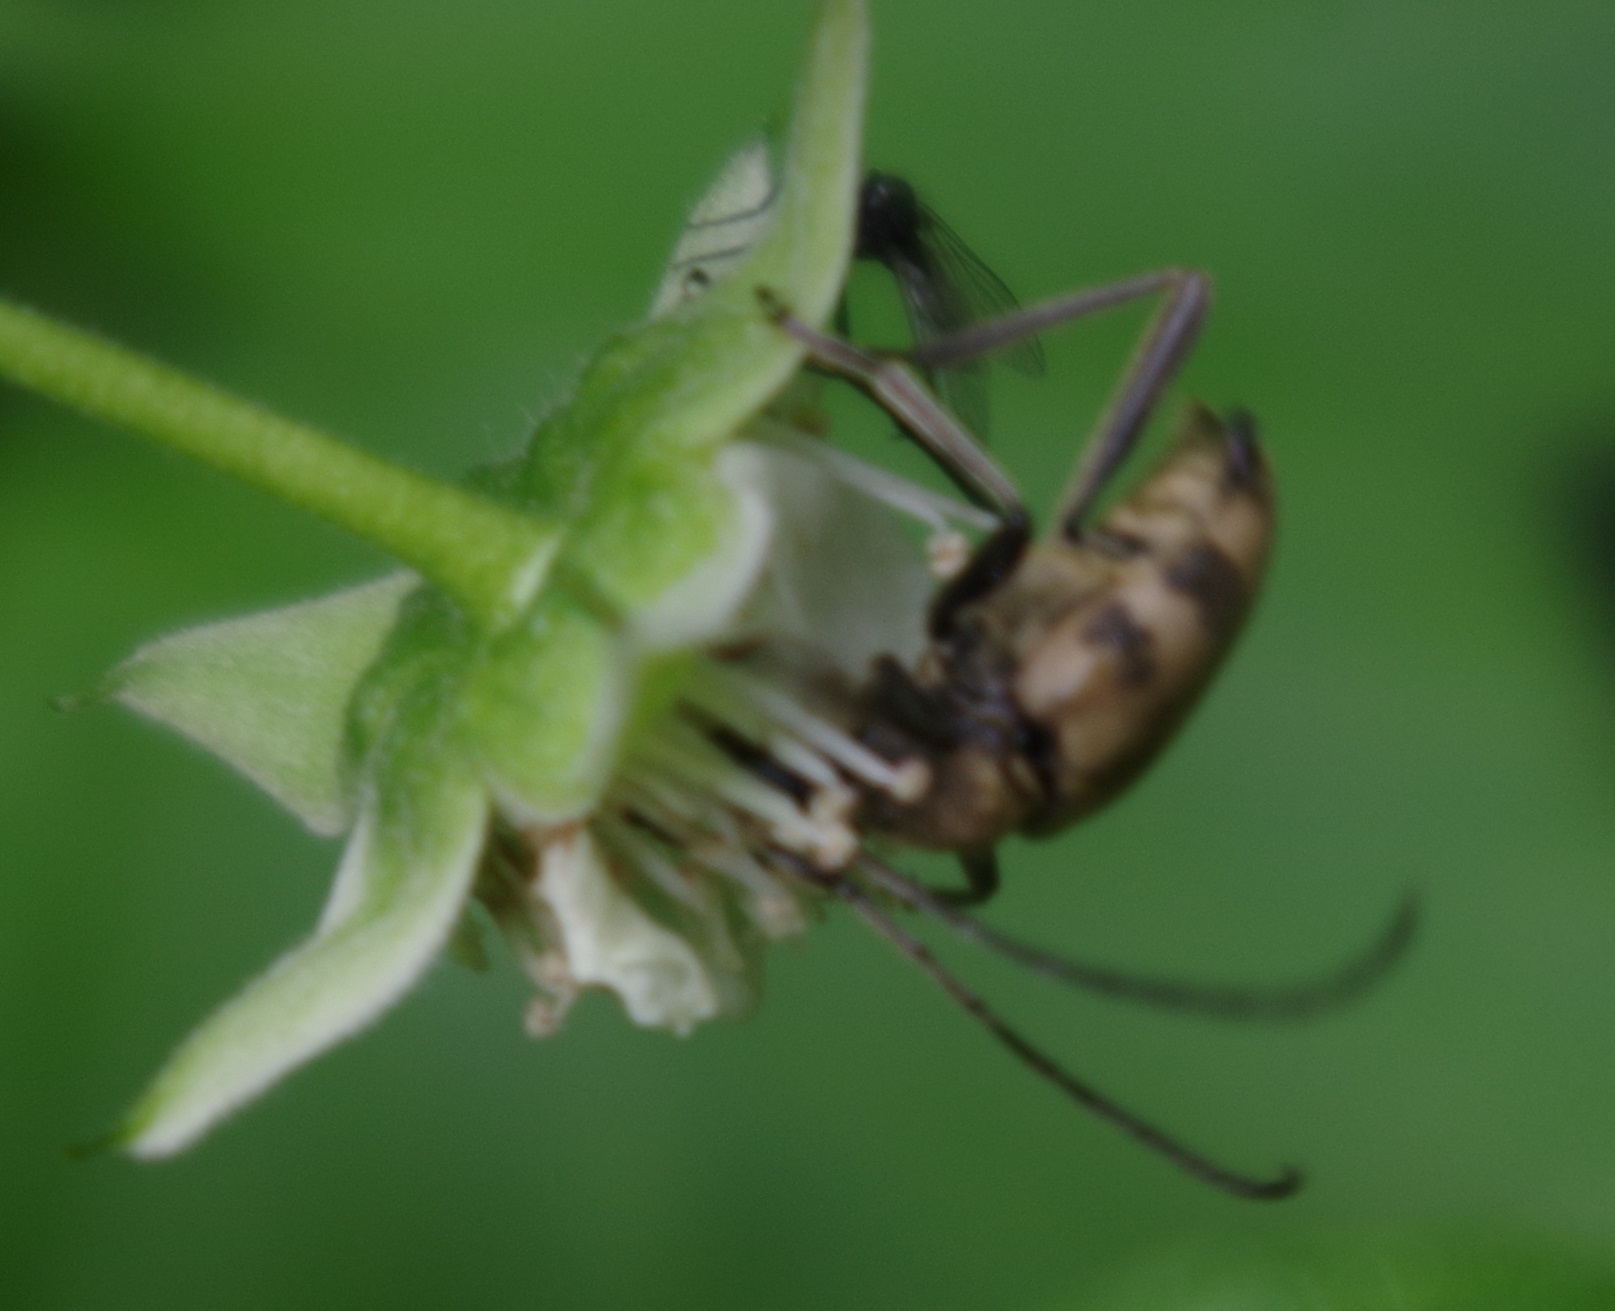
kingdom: Animalia
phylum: Arthropoda
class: Insecta
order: Coleoptera
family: Cerambycidae
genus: Pachytodes
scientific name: Pachytodes cerambyciformis
